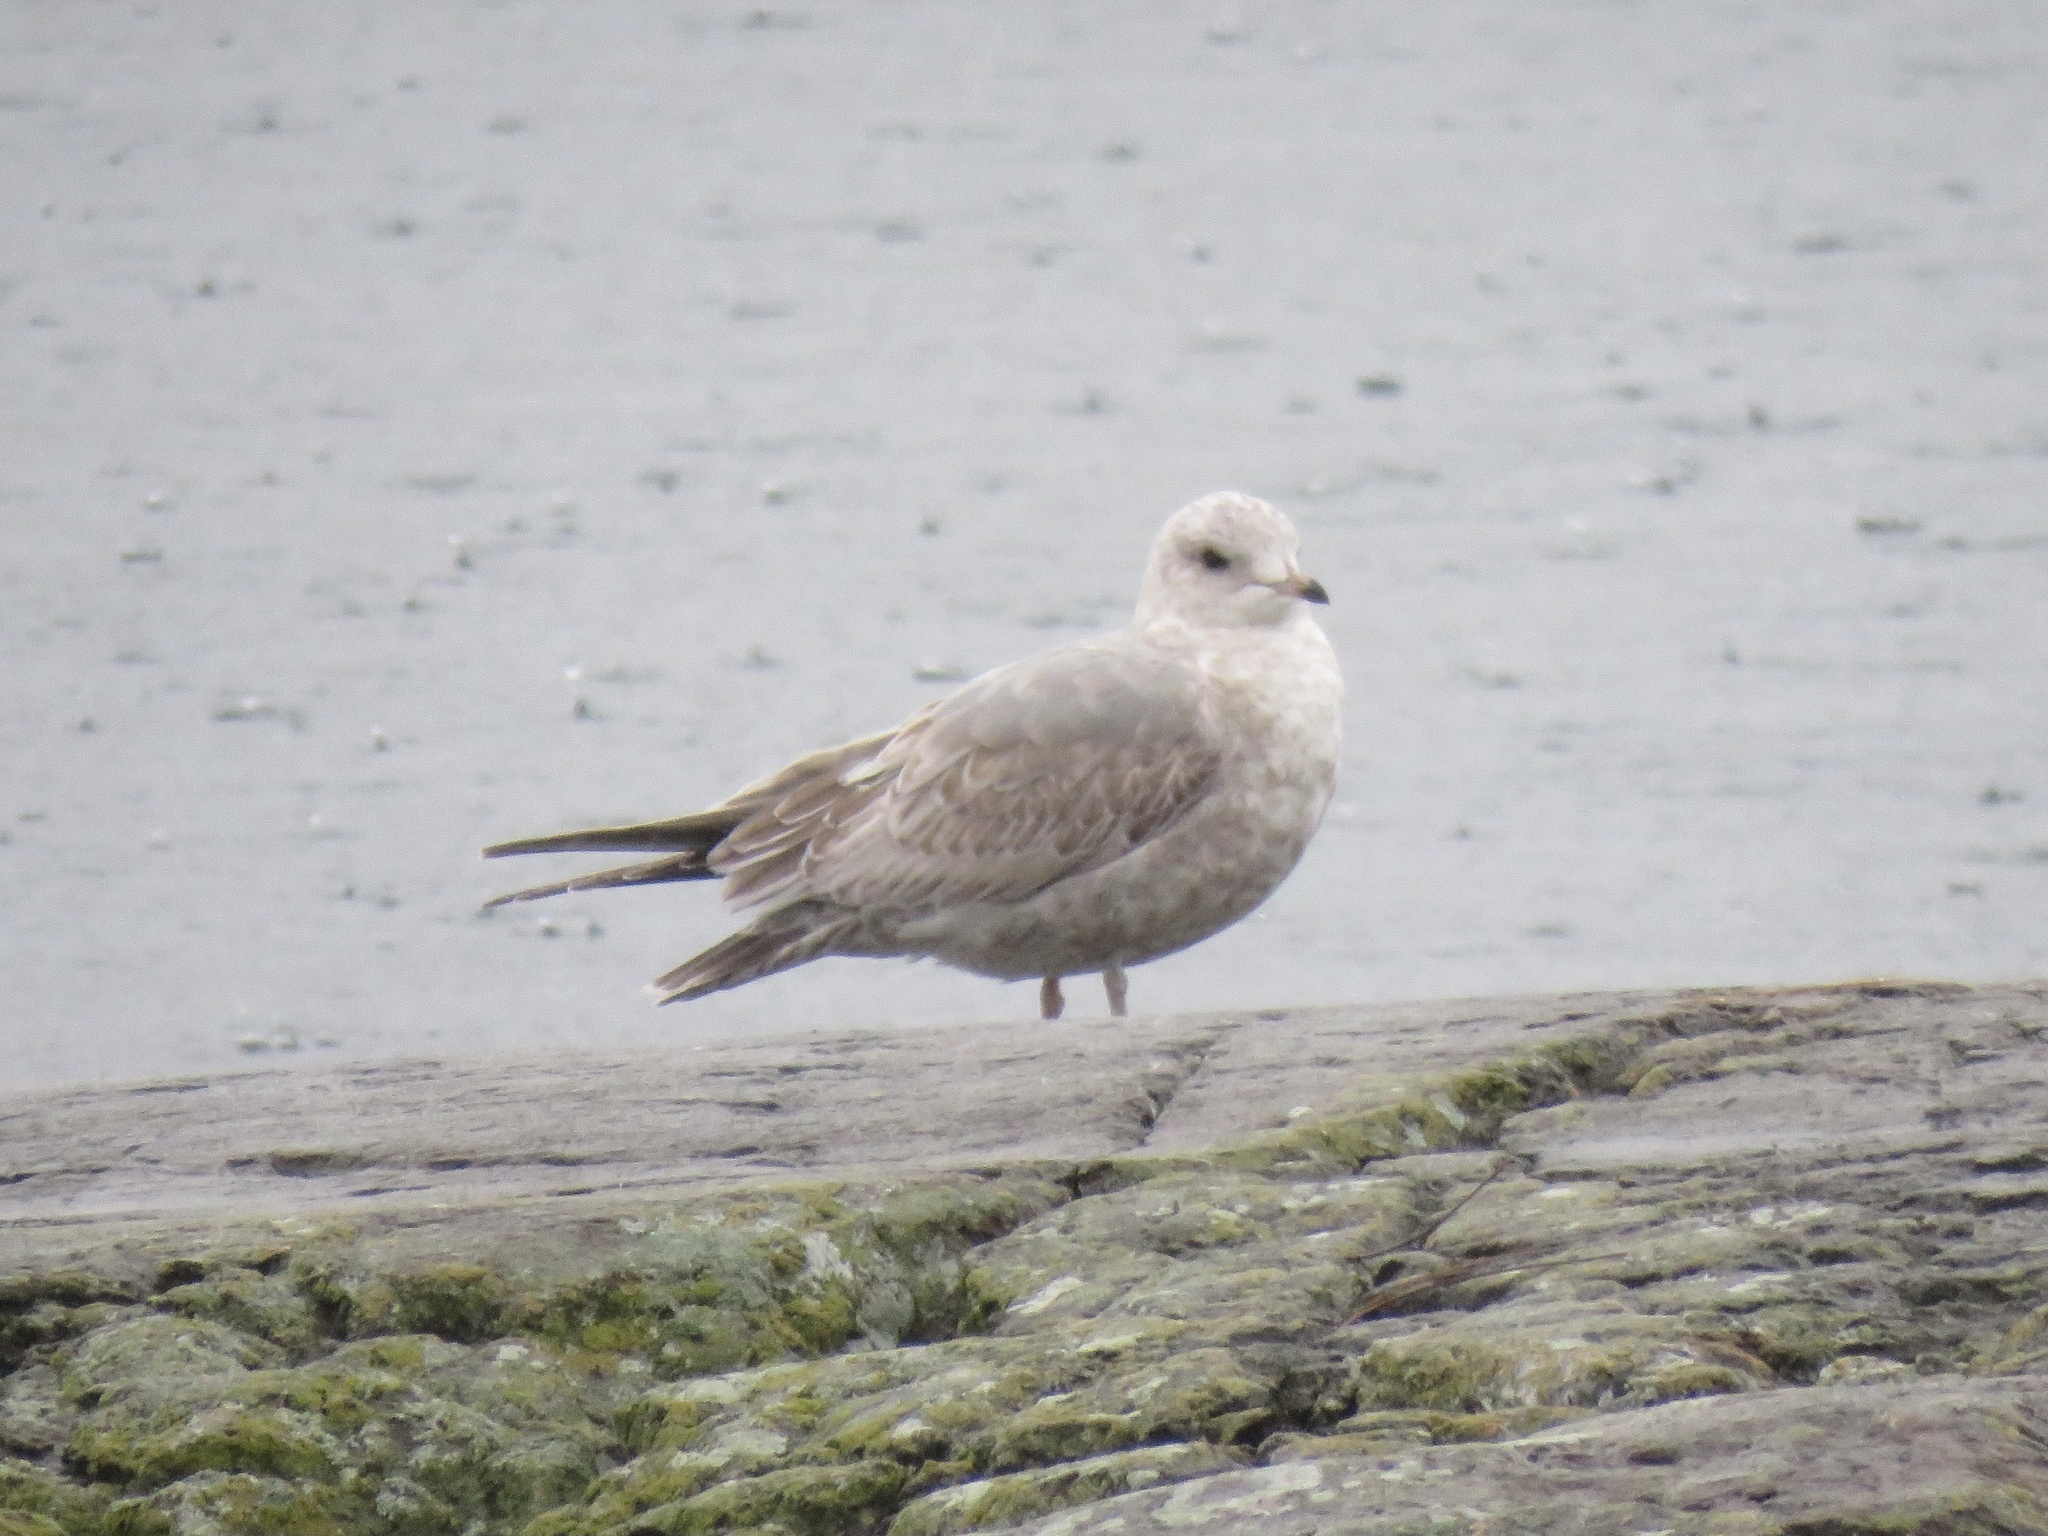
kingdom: Animalia
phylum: Chordata
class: Aves
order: Charadriiformes
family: Laridae
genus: Larus
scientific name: Larus brachyrhynchus
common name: Short-billed gull
